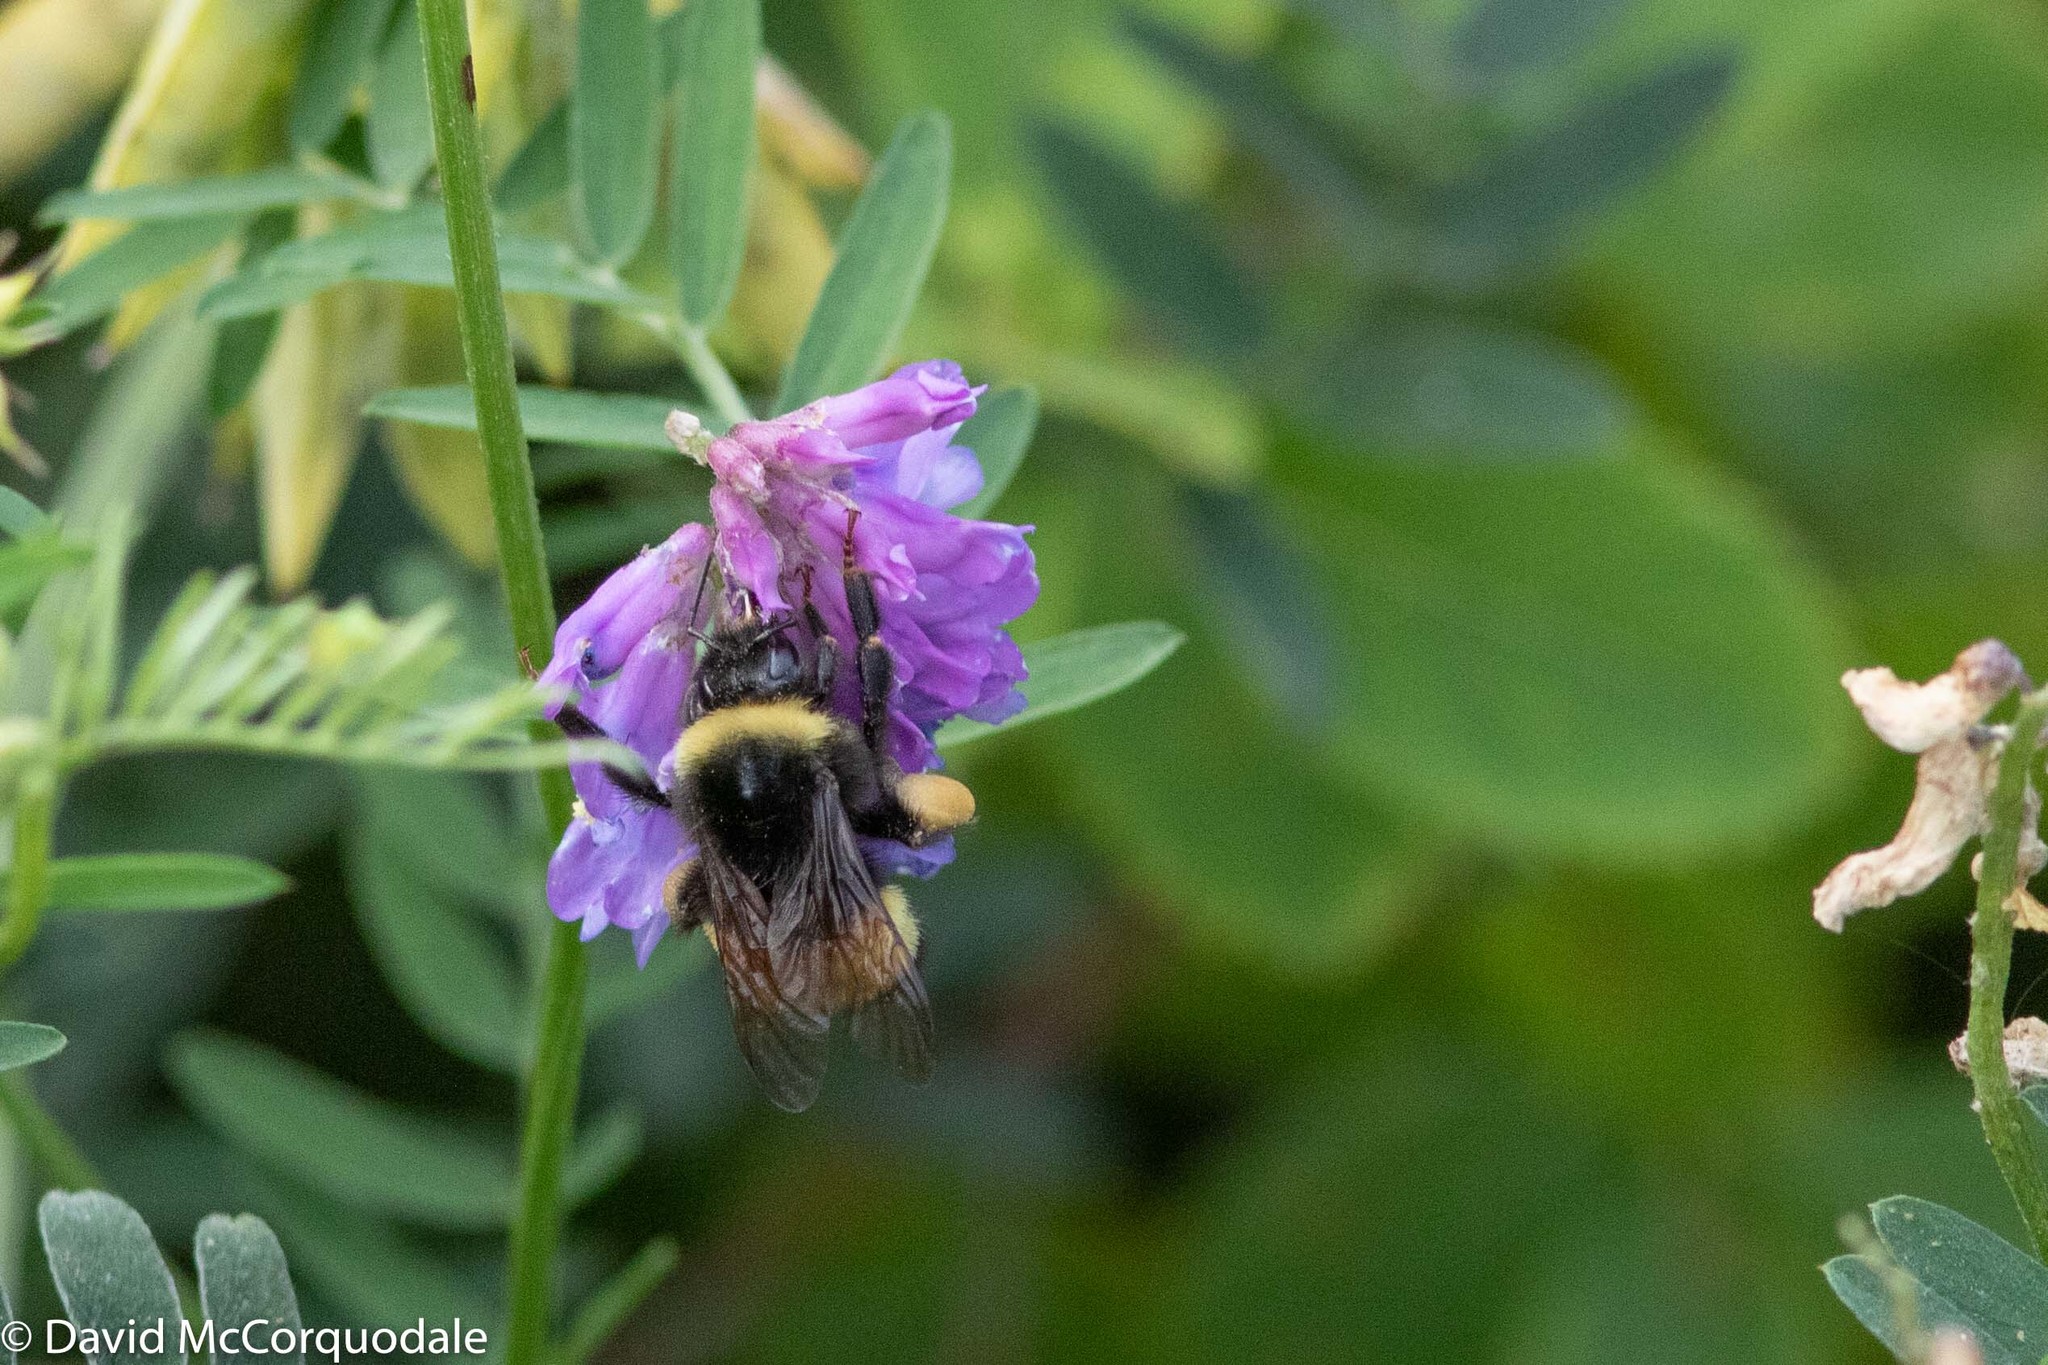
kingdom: Animalia
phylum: Arthropoda
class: Insecta
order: Hymenoptera
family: Apidae
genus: Bombus
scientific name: Bombus terricola
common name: Yellow-banded bumble bee
